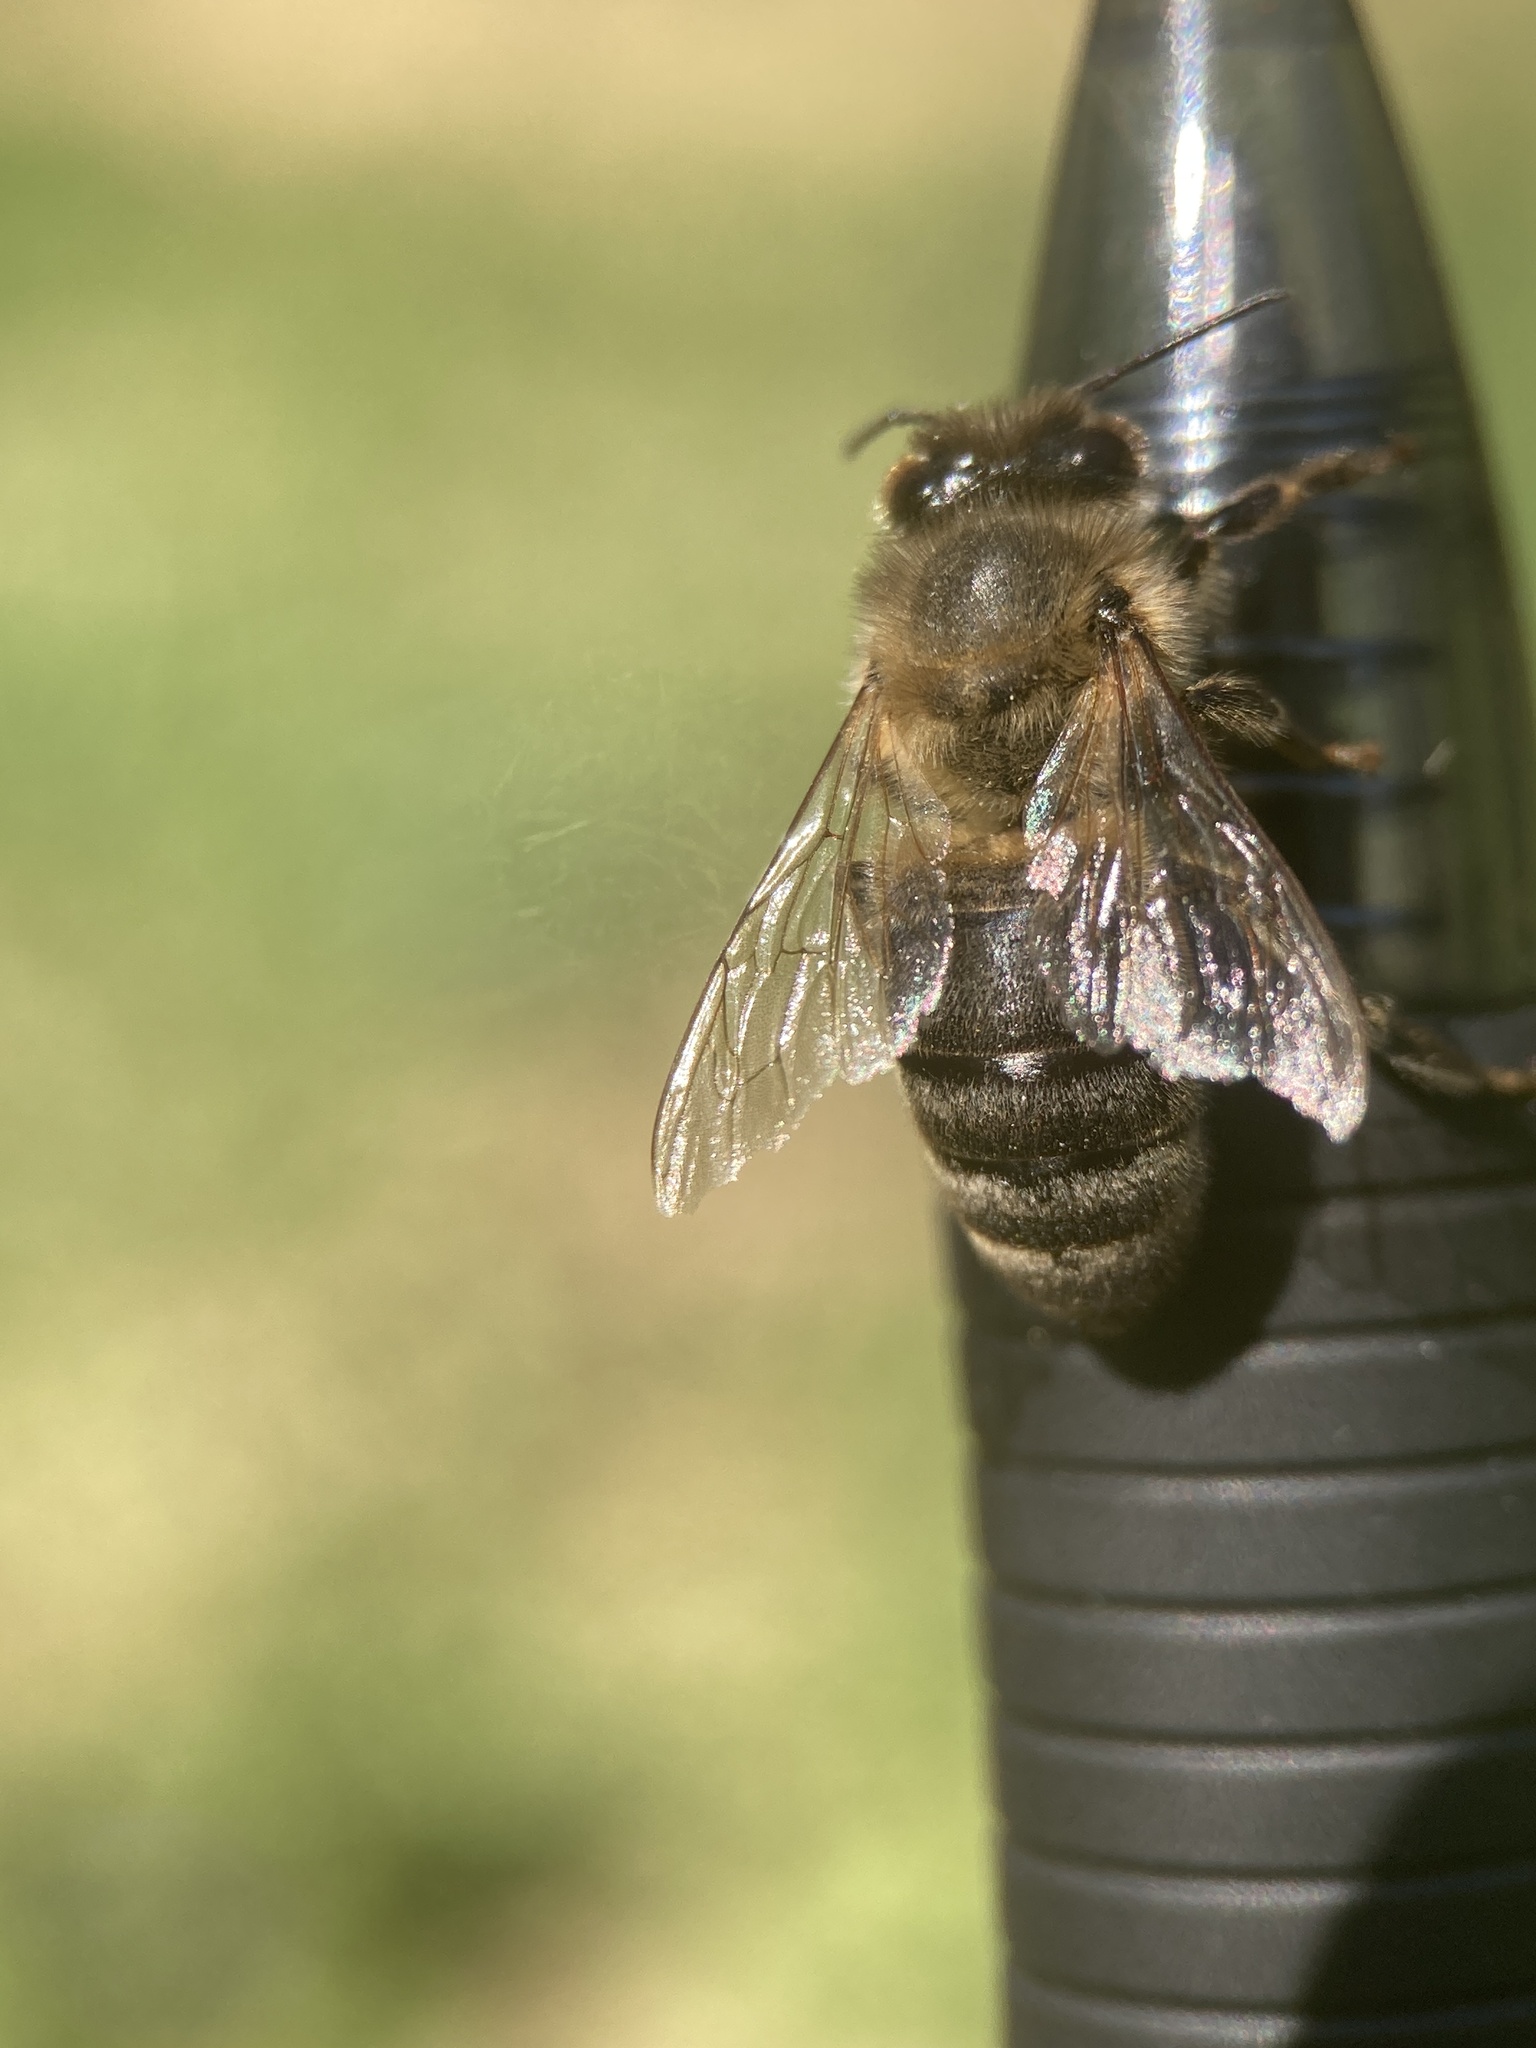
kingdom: Animalia
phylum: Arthropoda
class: Insecta
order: Hymenoptera
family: Apidae
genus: Apis
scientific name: Apis mellifera
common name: Honey bee
